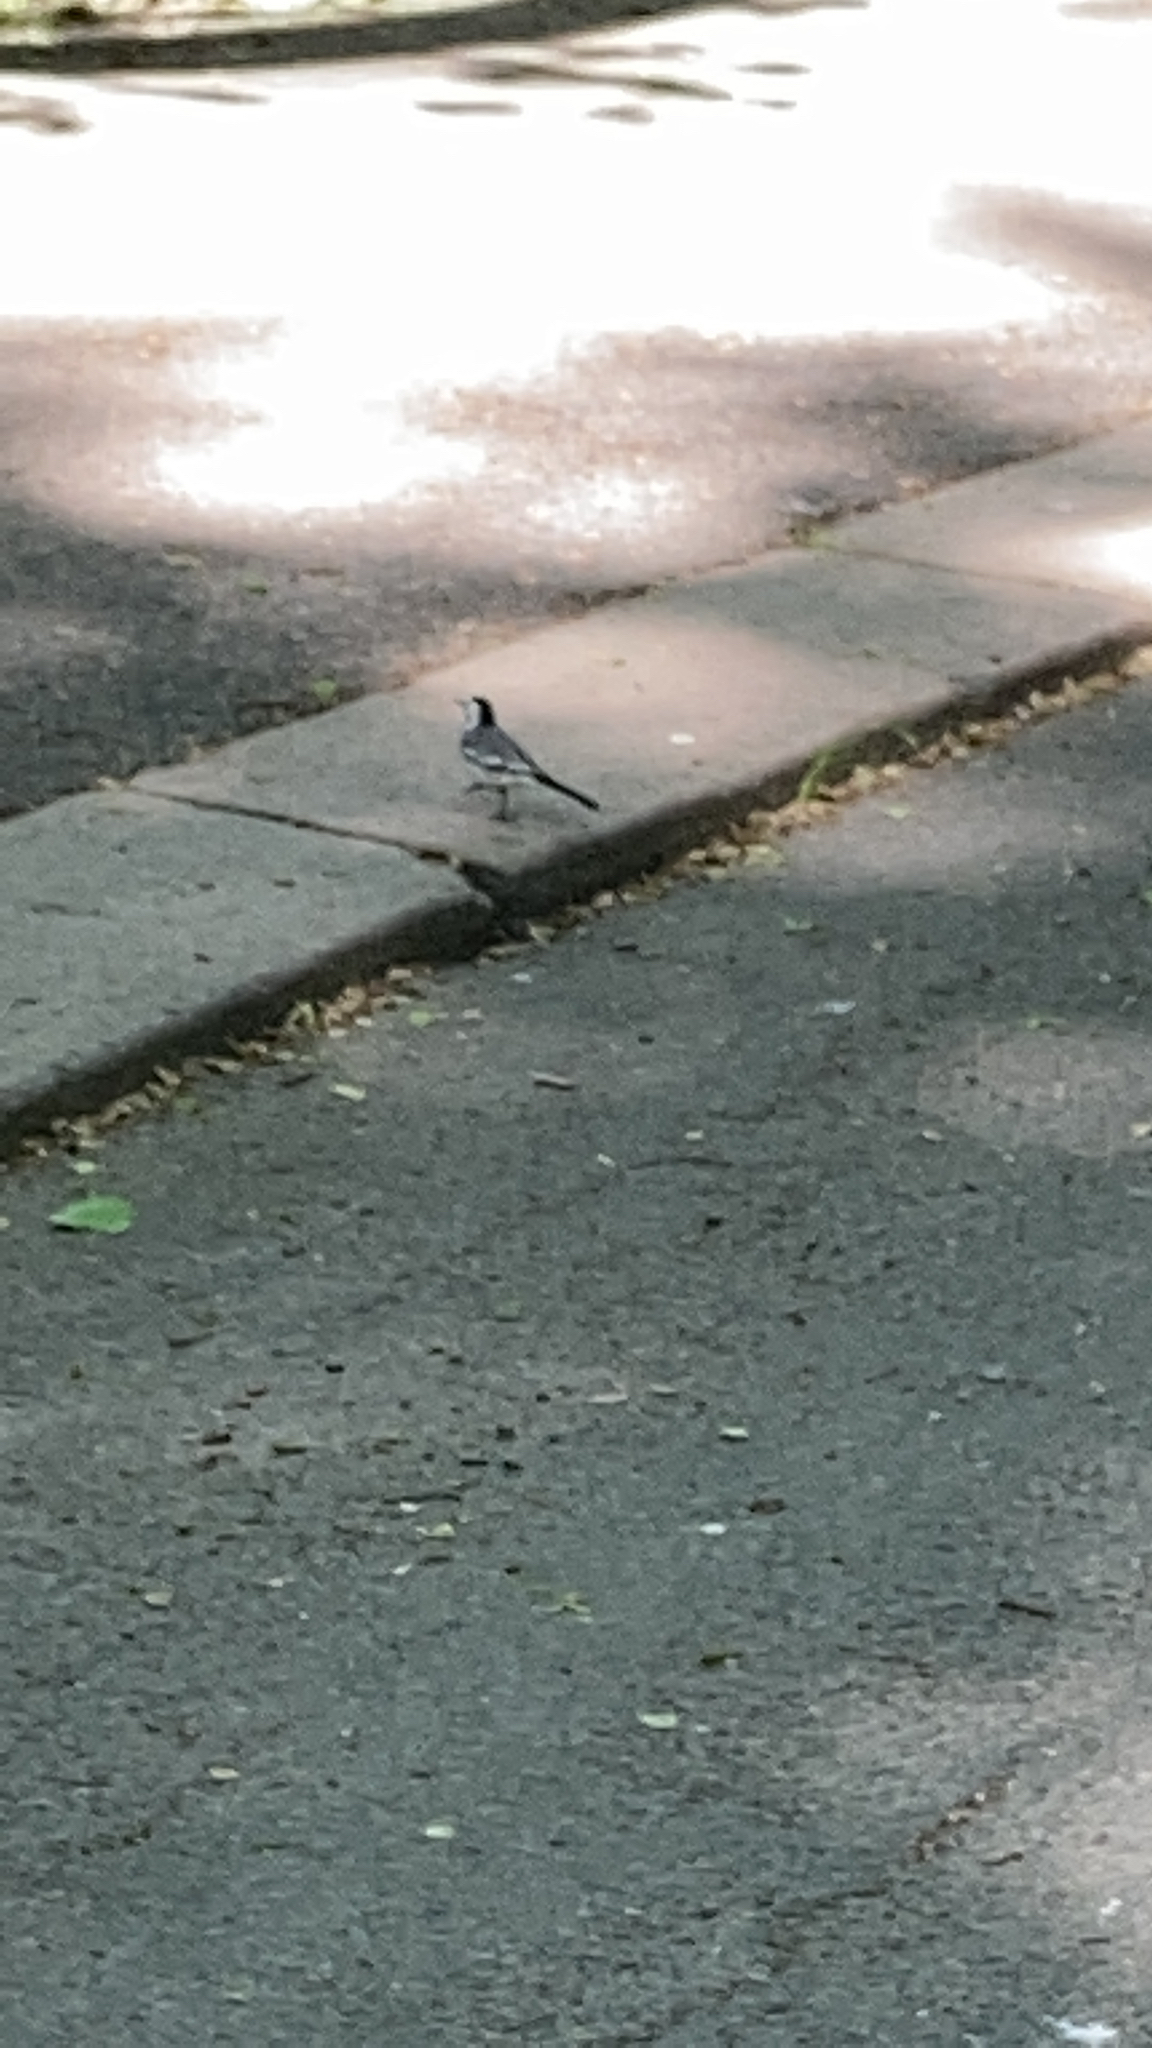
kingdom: Animalia
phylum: Chordata
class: Aves
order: Passeriformes
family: Motacillidae
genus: Motacilla
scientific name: Motacilla alba
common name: White wagtail
